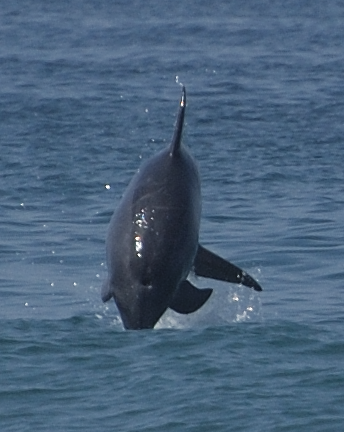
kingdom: Animalia
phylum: Chordata
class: Mammalia
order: Cetacea
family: Delphinidae
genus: Tursiops
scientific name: Tursiops truncatus
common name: Bottlenose dolphin
